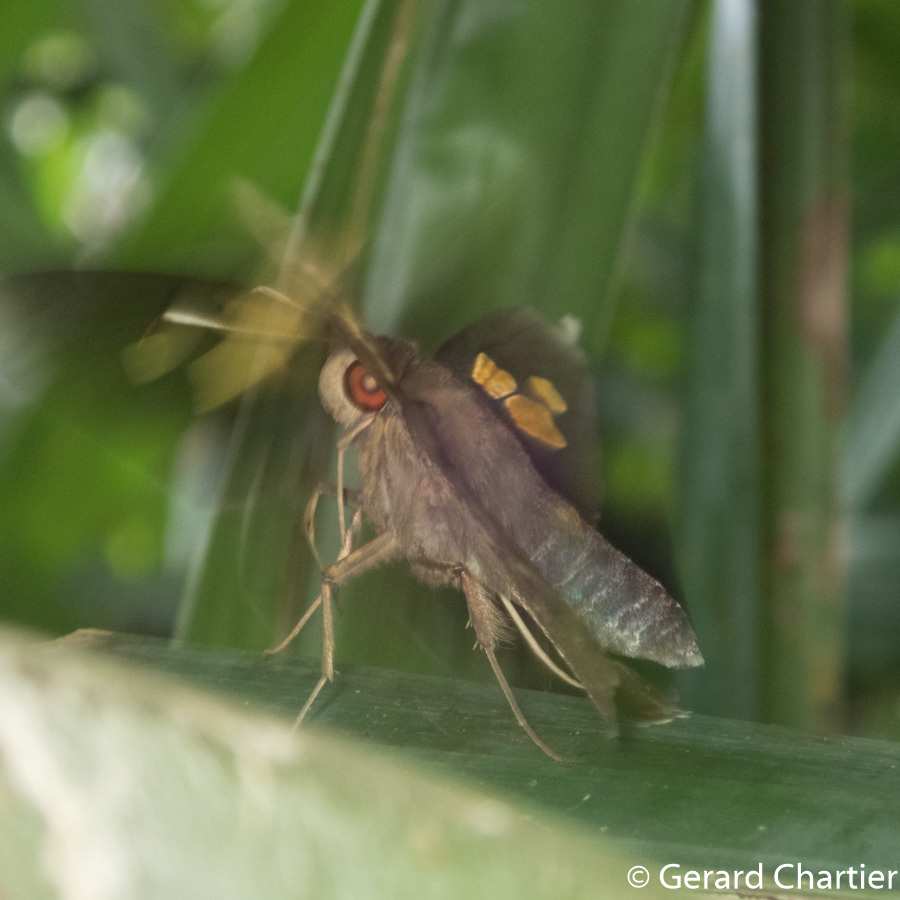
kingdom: Animalia
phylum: Arthropoda
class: Insecta
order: Lepidoptera
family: Hesperiidae
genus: Erionota
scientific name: Erionota acroleucus
